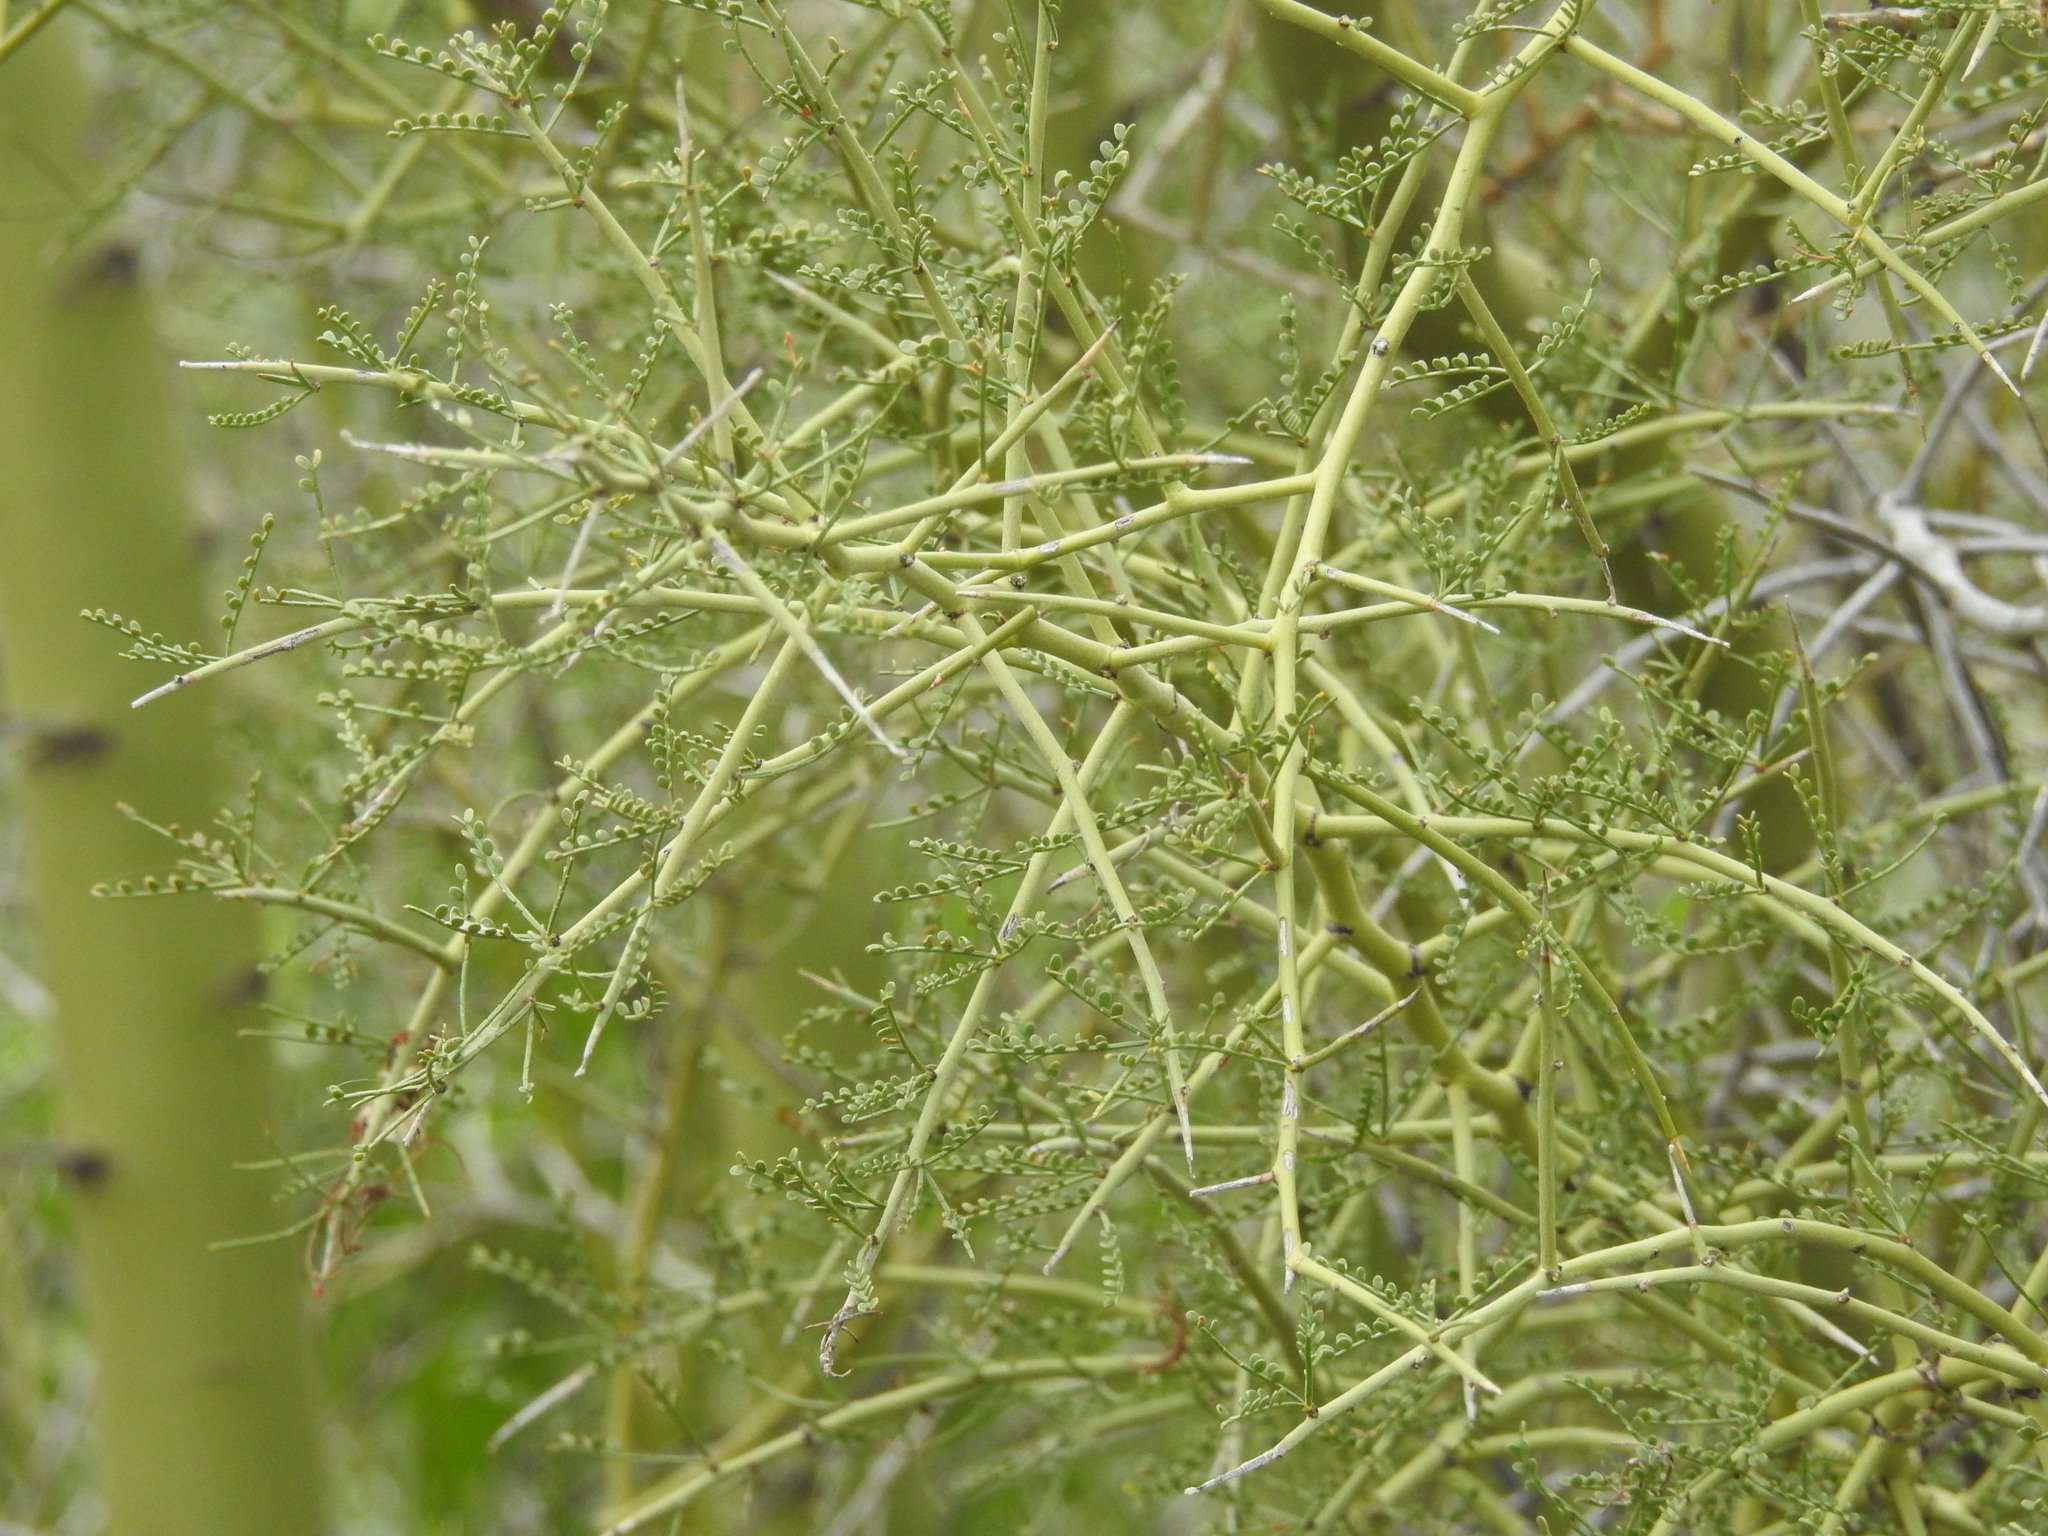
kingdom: Plantae
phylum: Tracheophyta
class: Magnoliopsida
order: Fabales
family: Fabaceae
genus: Parkinsonia
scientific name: Parkinsonia microphylla
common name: Yellow paloverde
